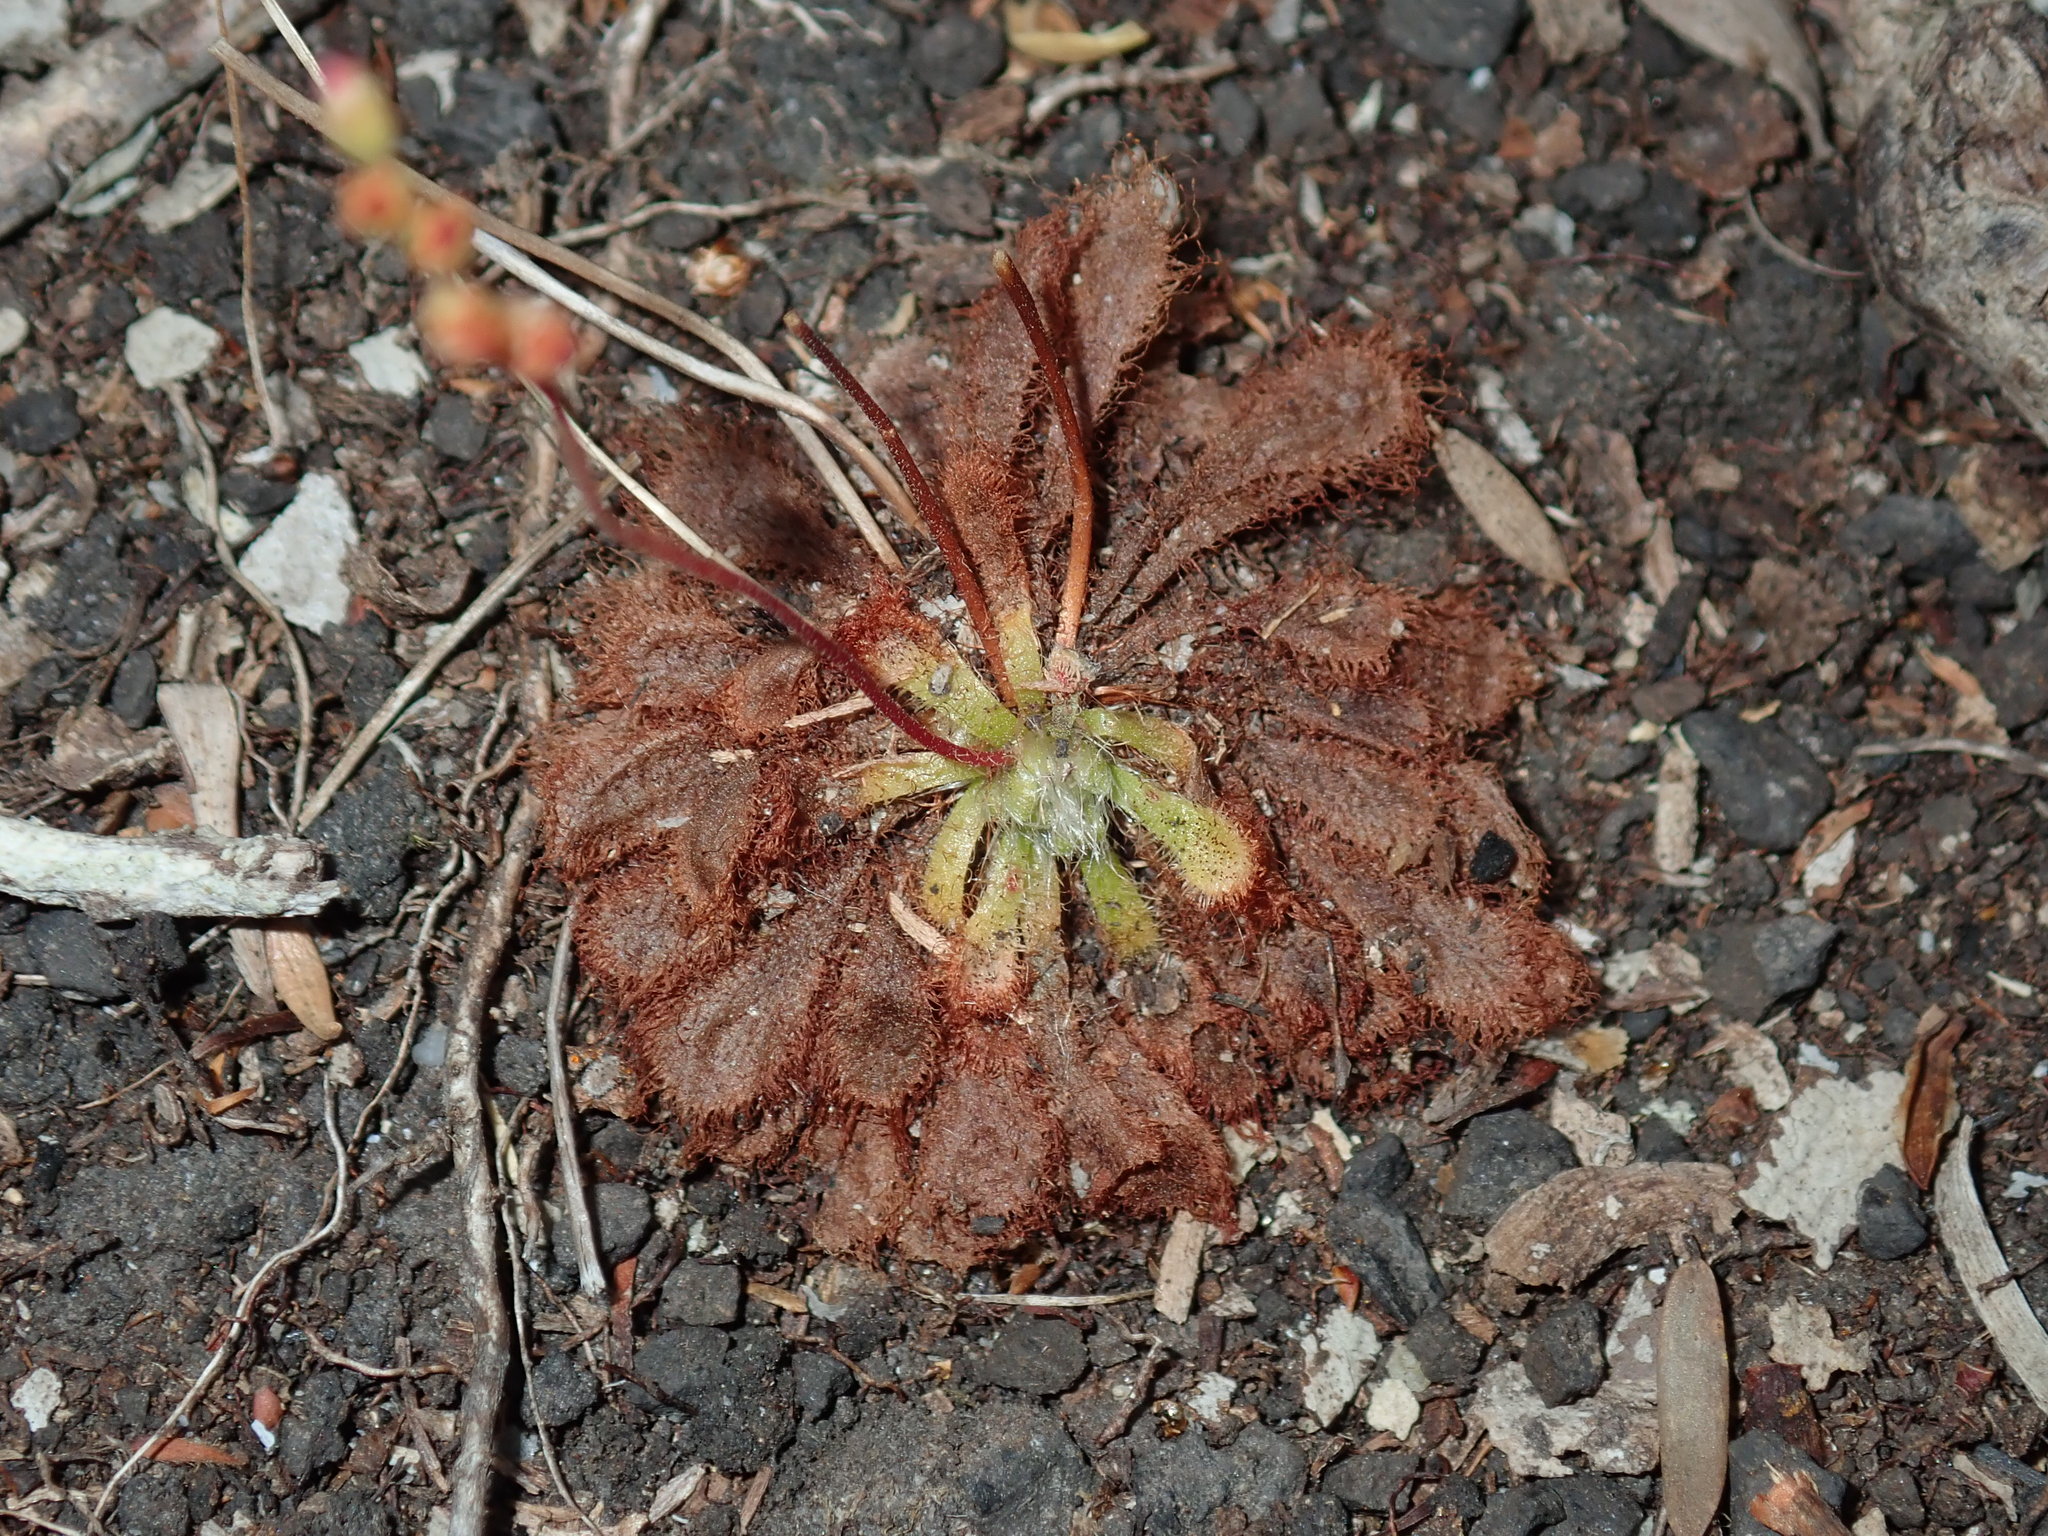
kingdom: Plantae
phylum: Tracheophyta
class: Magnoliopsida
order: Caryophyllales
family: Droseraceae
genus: Drosera
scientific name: Drosera spatulata
